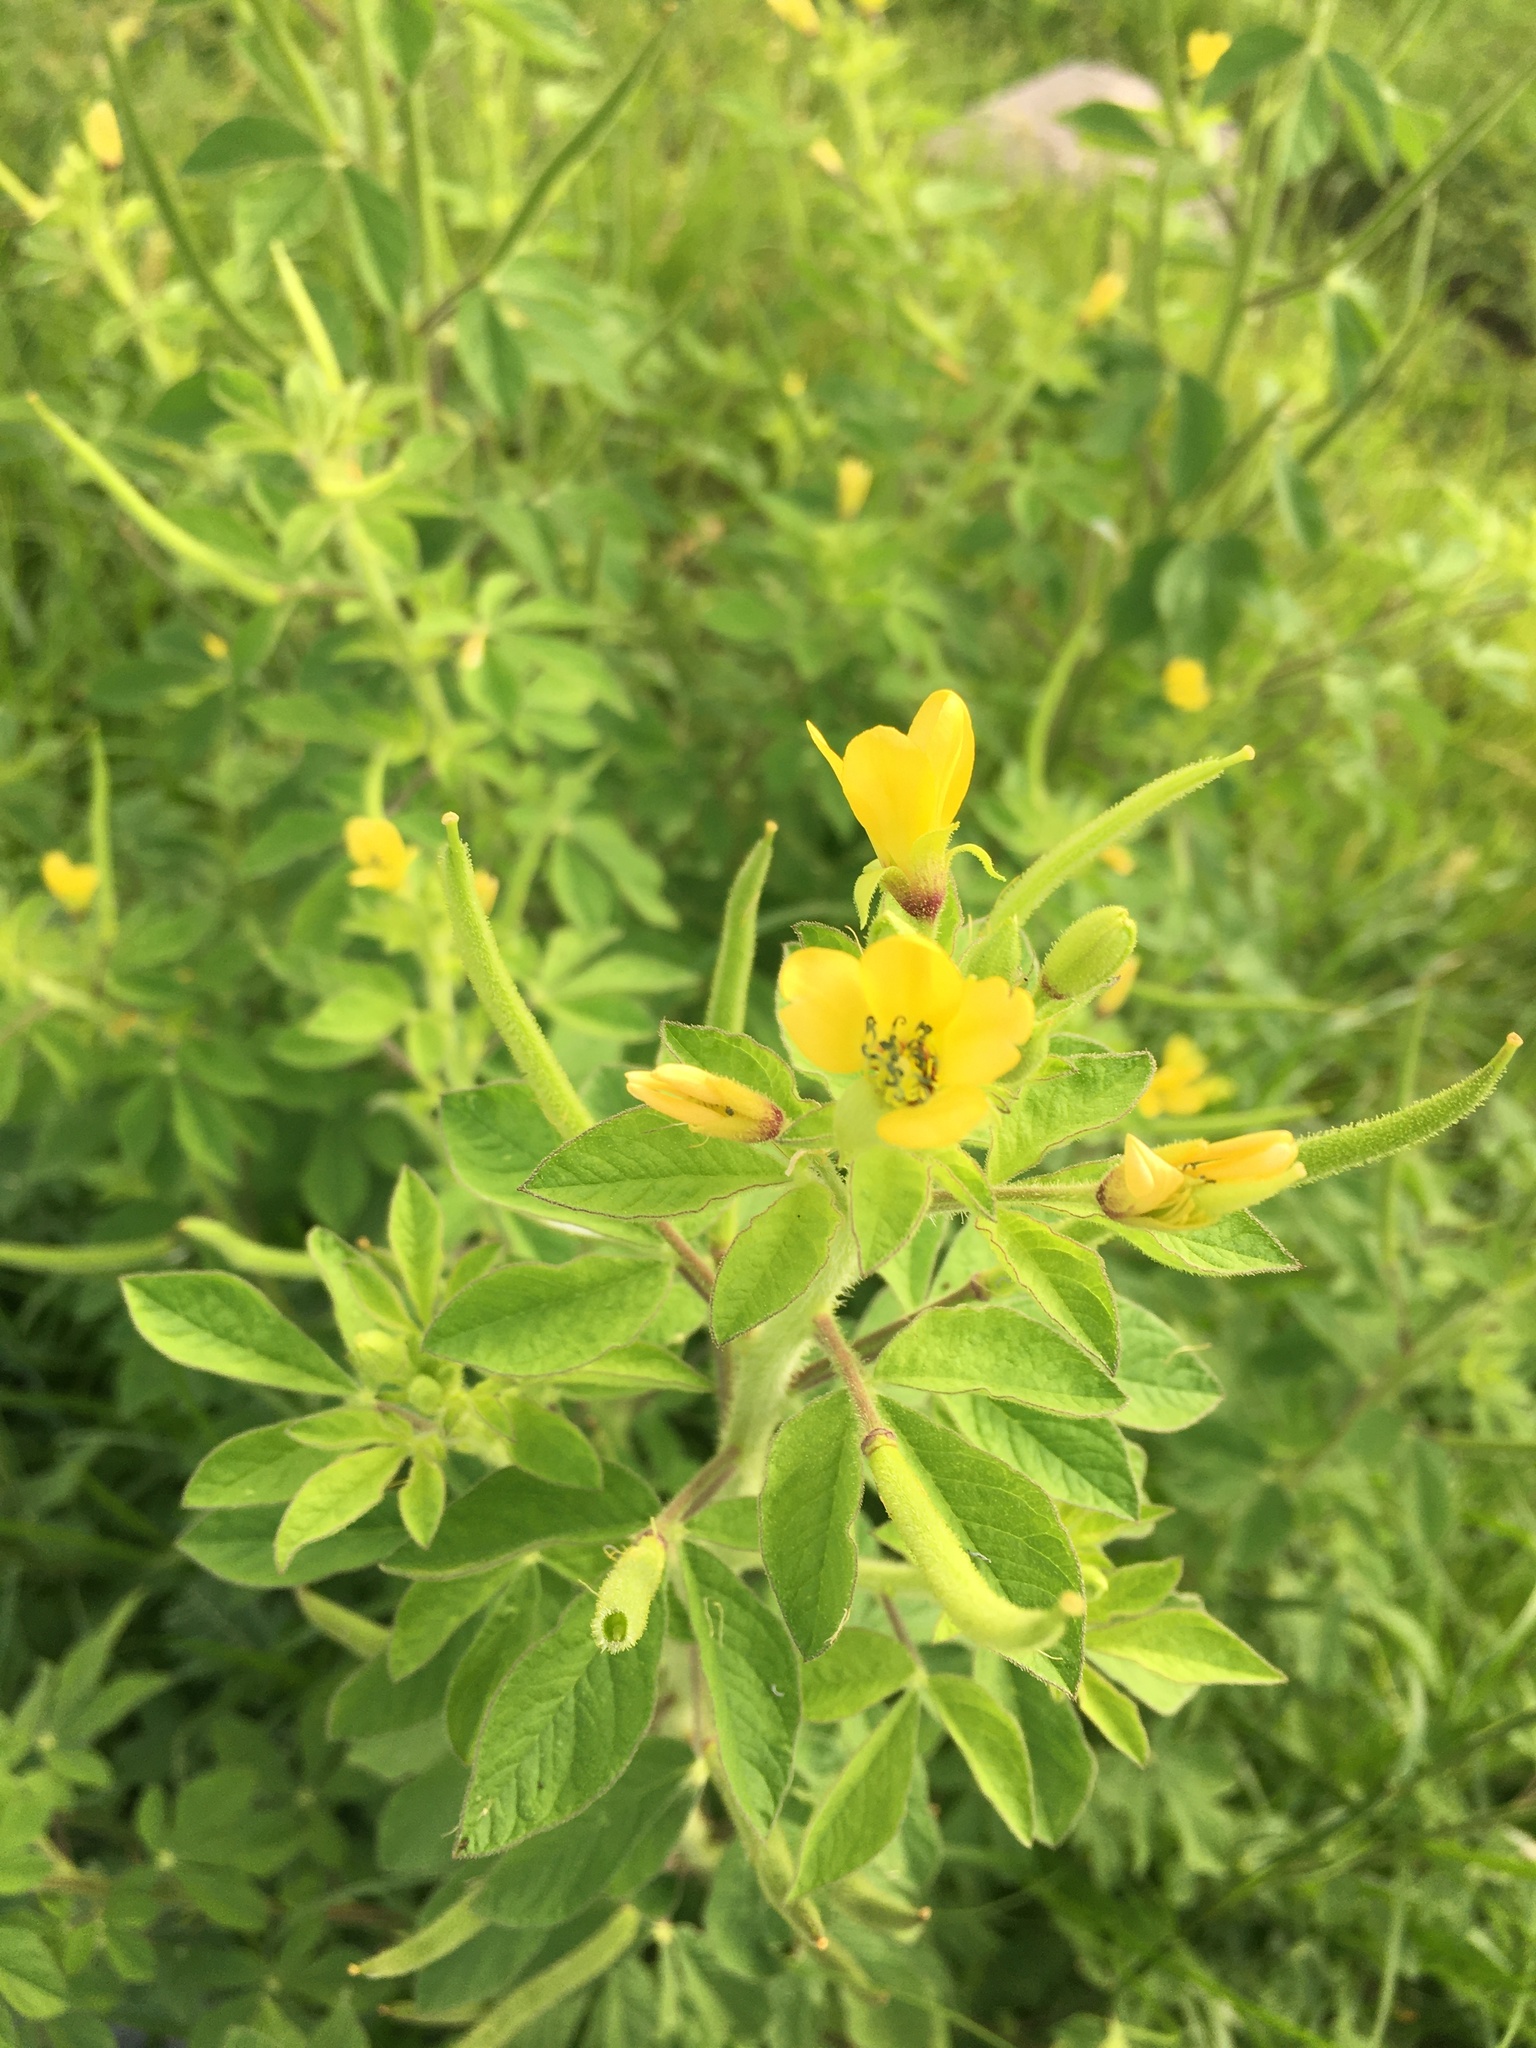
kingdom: Plantae
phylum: Tracheophyta
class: Magnoliopsida
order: Brassicales
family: Cleomaceae
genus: Arivela
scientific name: Arivela viscosa
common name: Asian spiderflower
